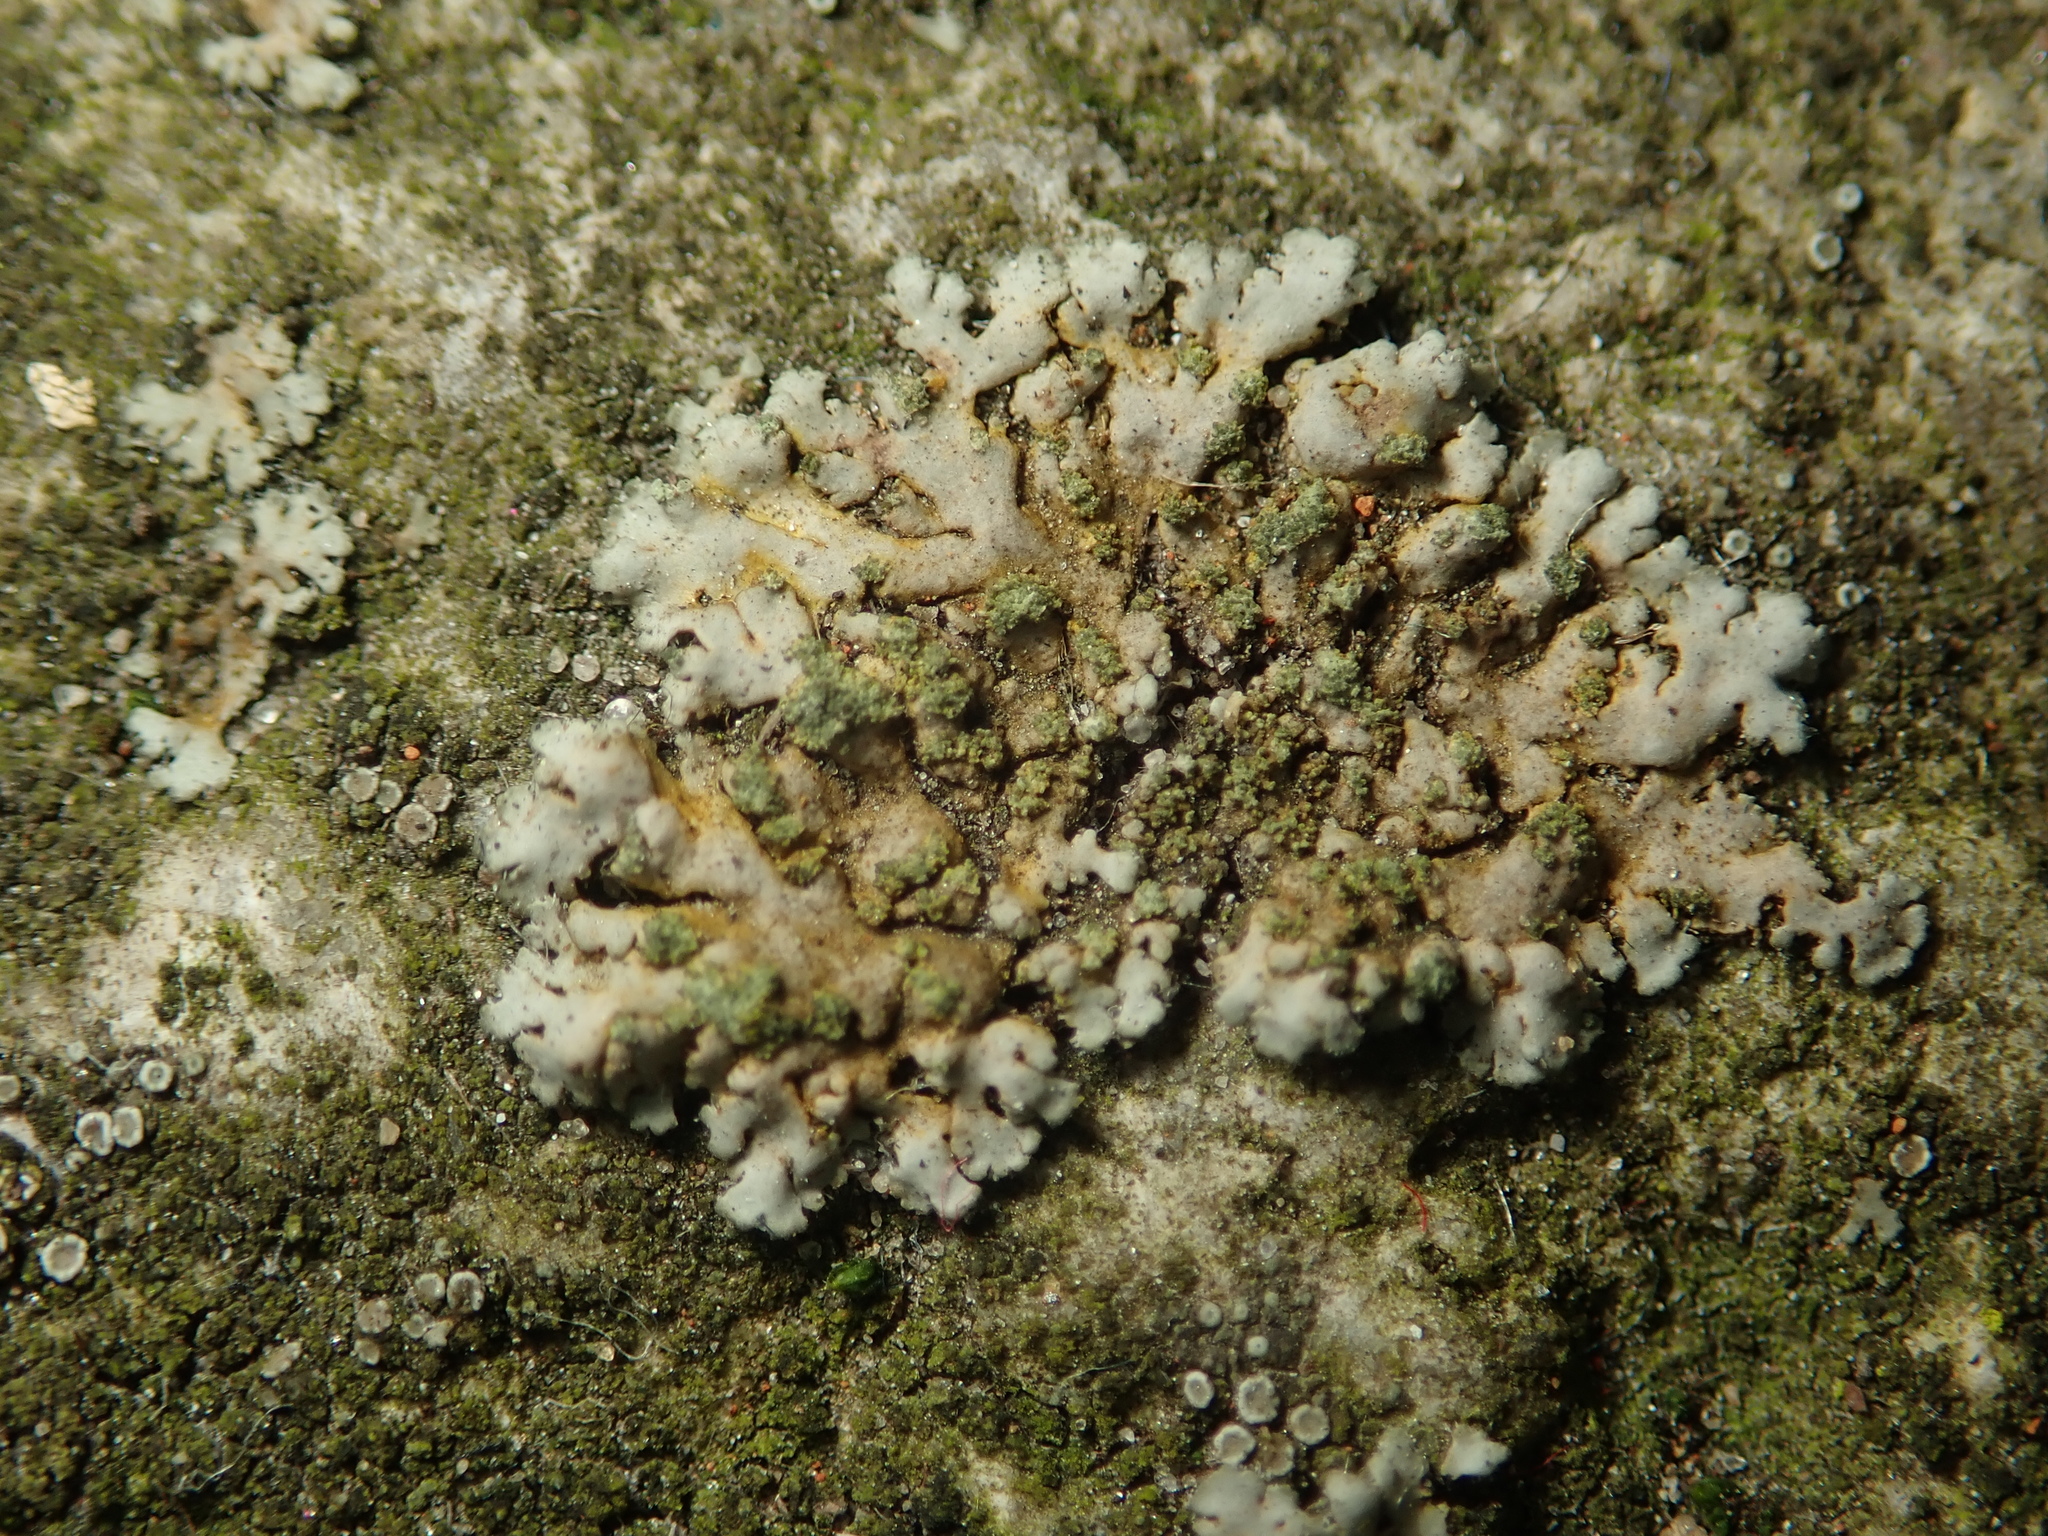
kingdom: Fungi
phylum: Ascomycota
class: Lecanoromycetes
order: Caliciales
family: Physciaceae
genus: Phaeophyscia
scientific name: Phaeophyscia orbicularis
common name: Mealy shadow lichen
